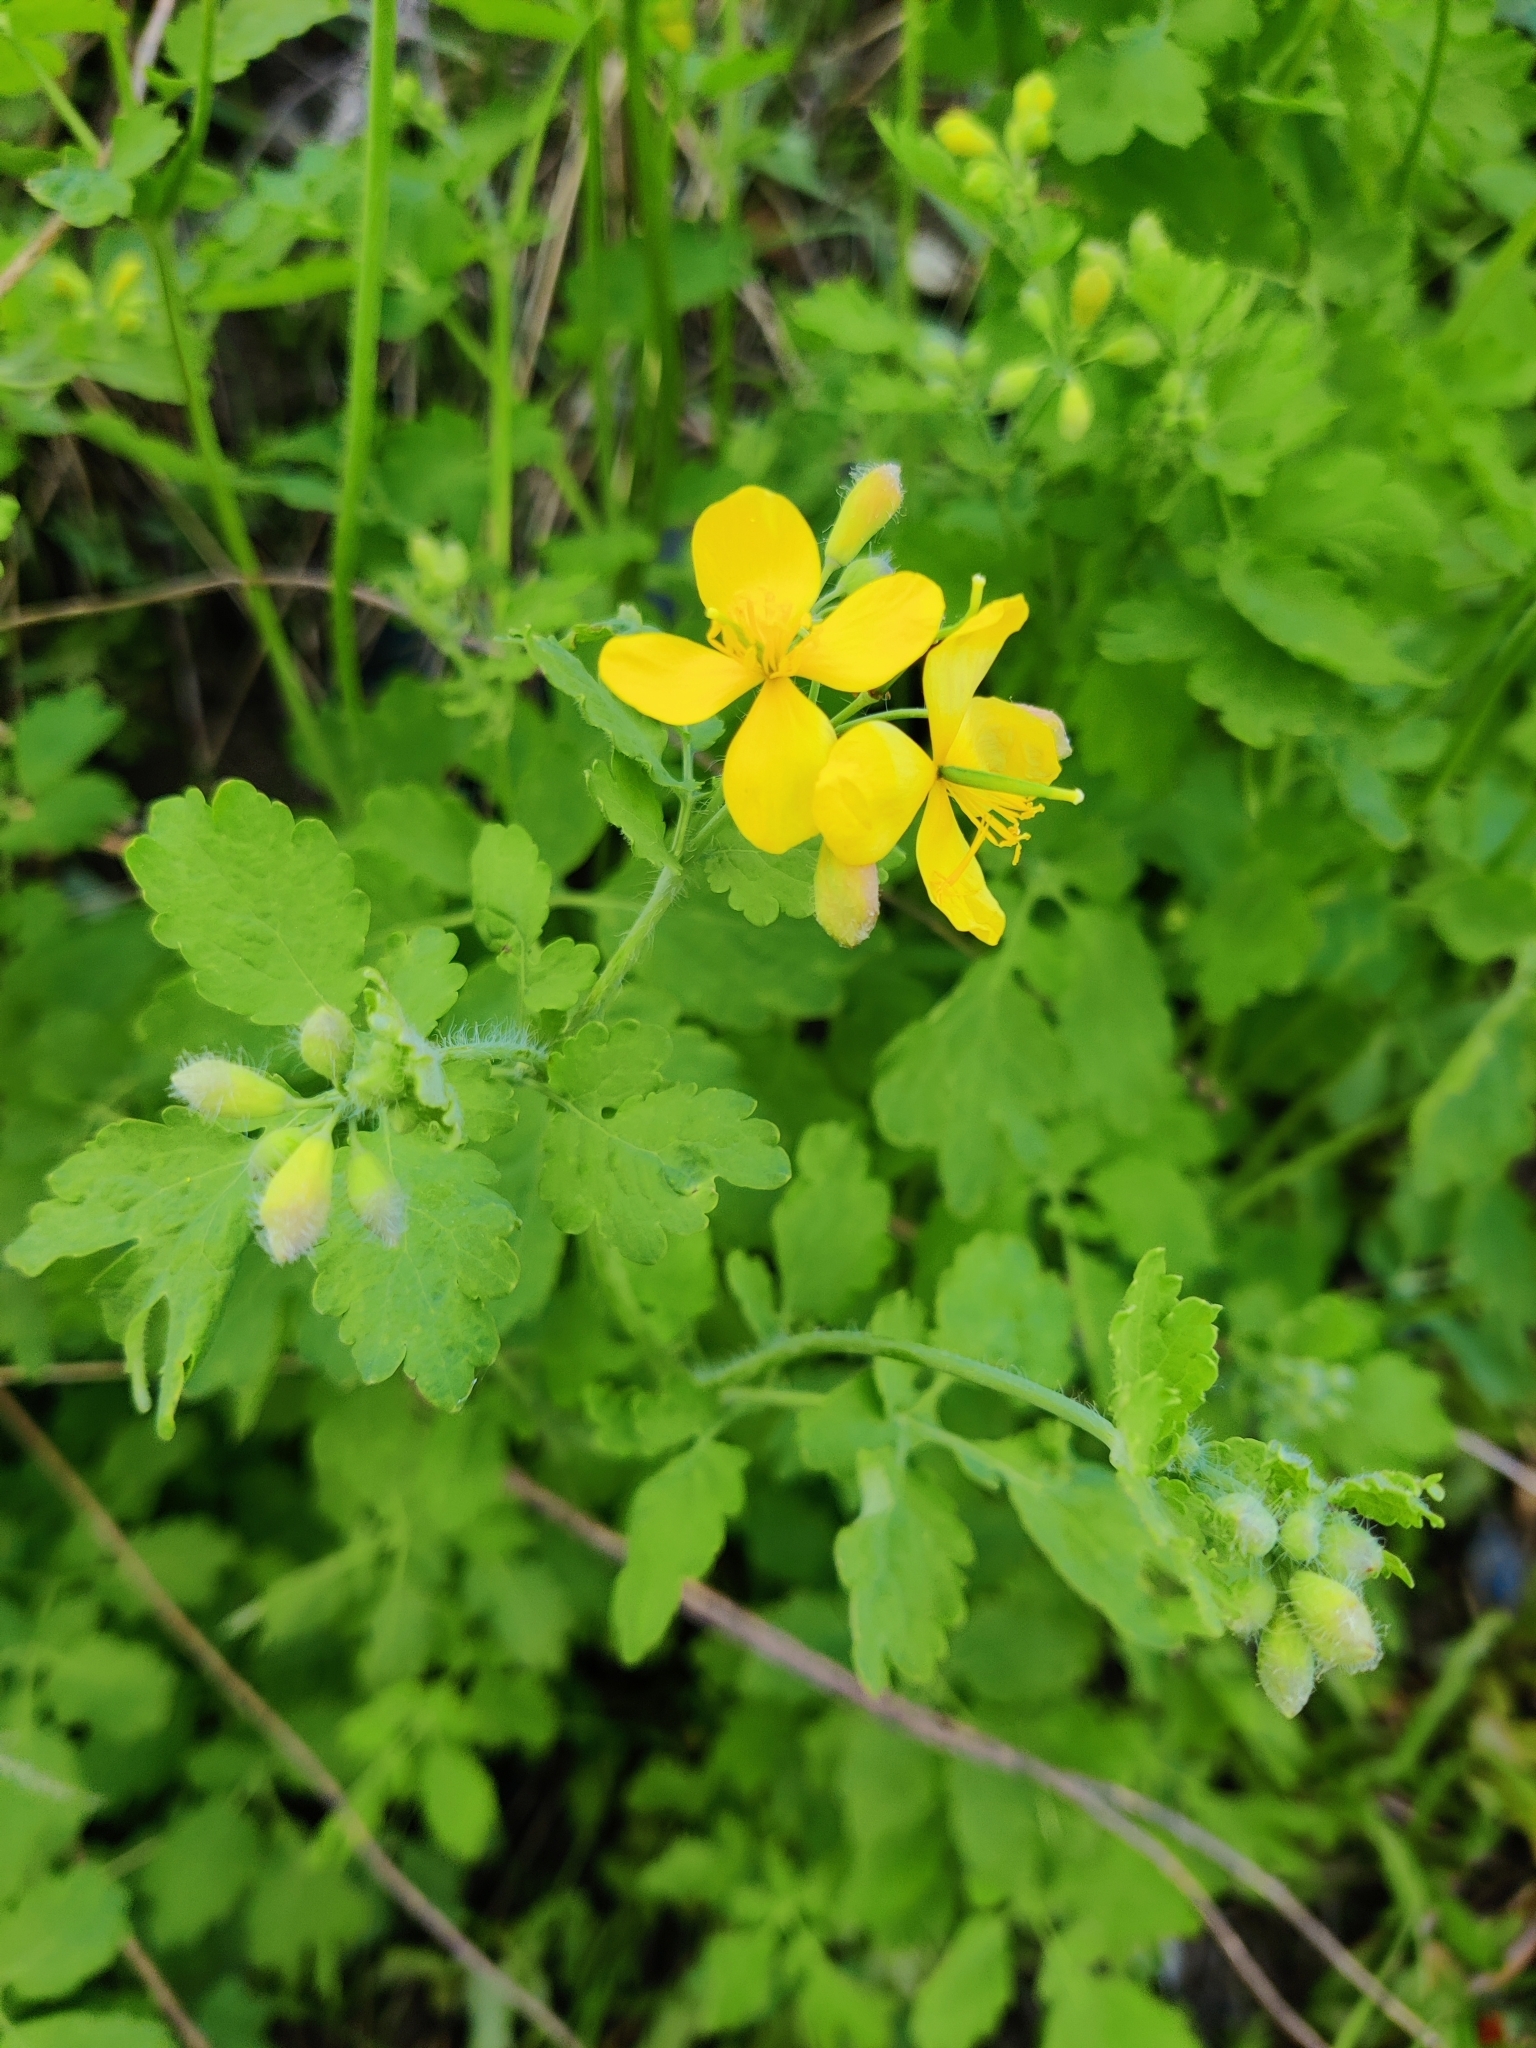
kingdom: Plantae
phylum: Tracheophyta
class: Magnoliopsida
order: Ranunculales
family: Papaveraceae
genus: Chelidonium
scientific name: Chelidonium majus
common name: Greater celandine
